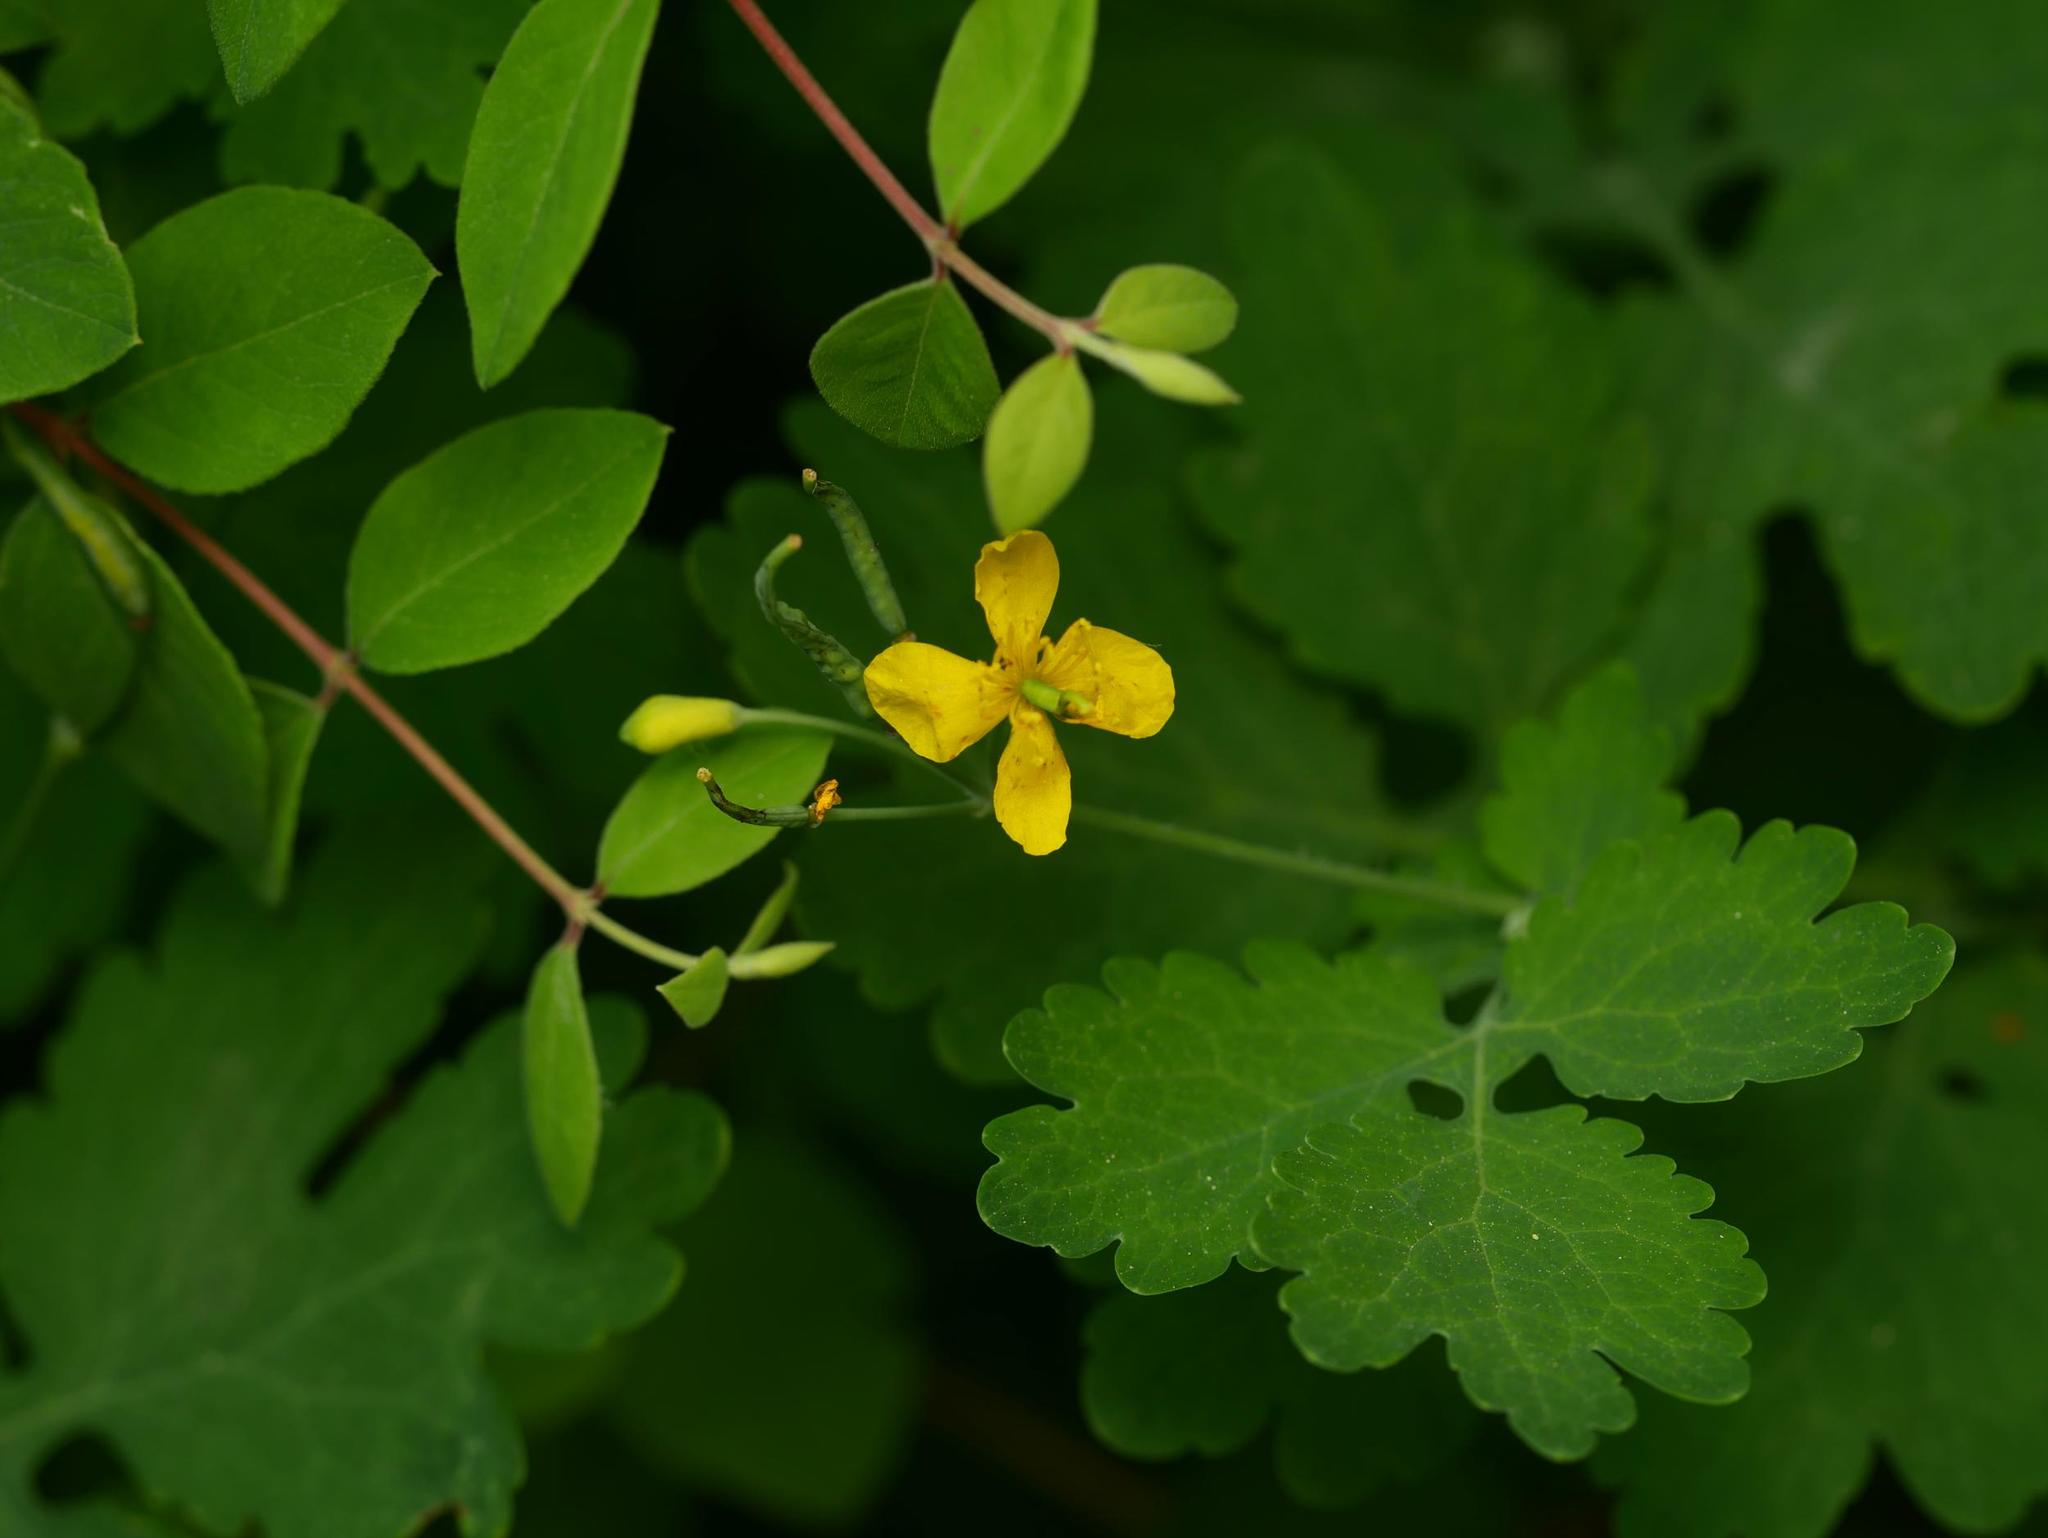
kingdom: Plantae
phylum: Tracheophyta
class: Magnoliopsida
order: Ranunculales
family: Papaveraceae
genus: Chelidonium
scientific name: Chelidonium majus
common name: Greater celandine
